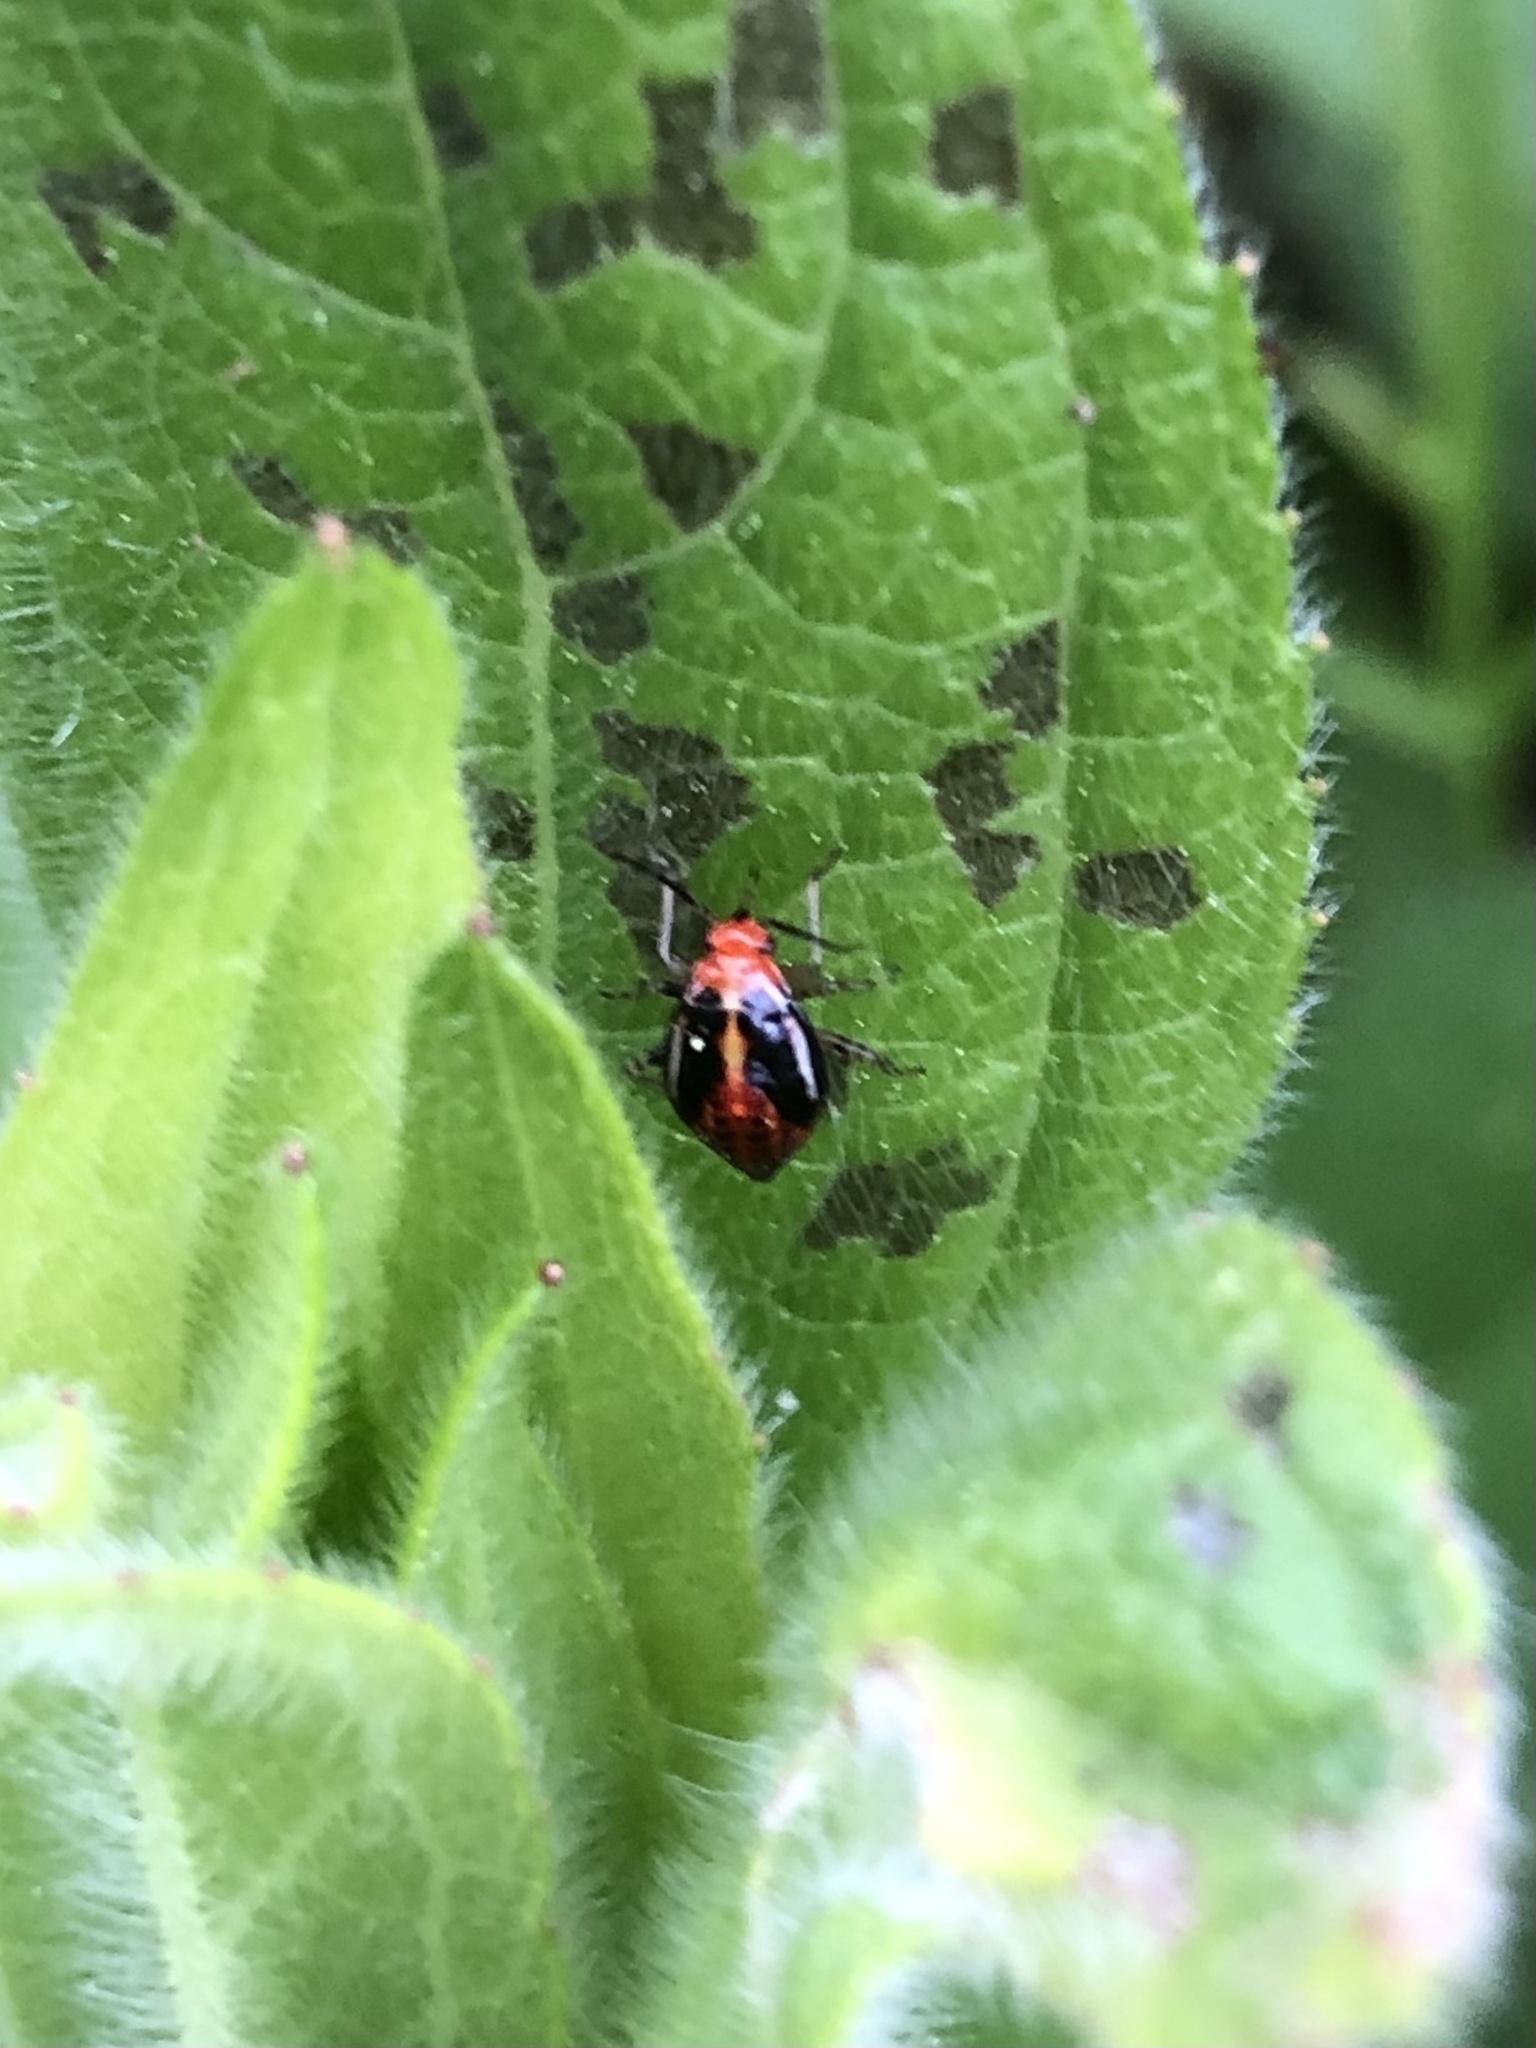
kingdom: Animalia
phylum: Arthropoda
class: Insecta
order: Hemiptera
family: Miridae
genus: Poecilocapsus
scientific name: Poecilocapsus lineatus
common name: Four-lined plant bug
